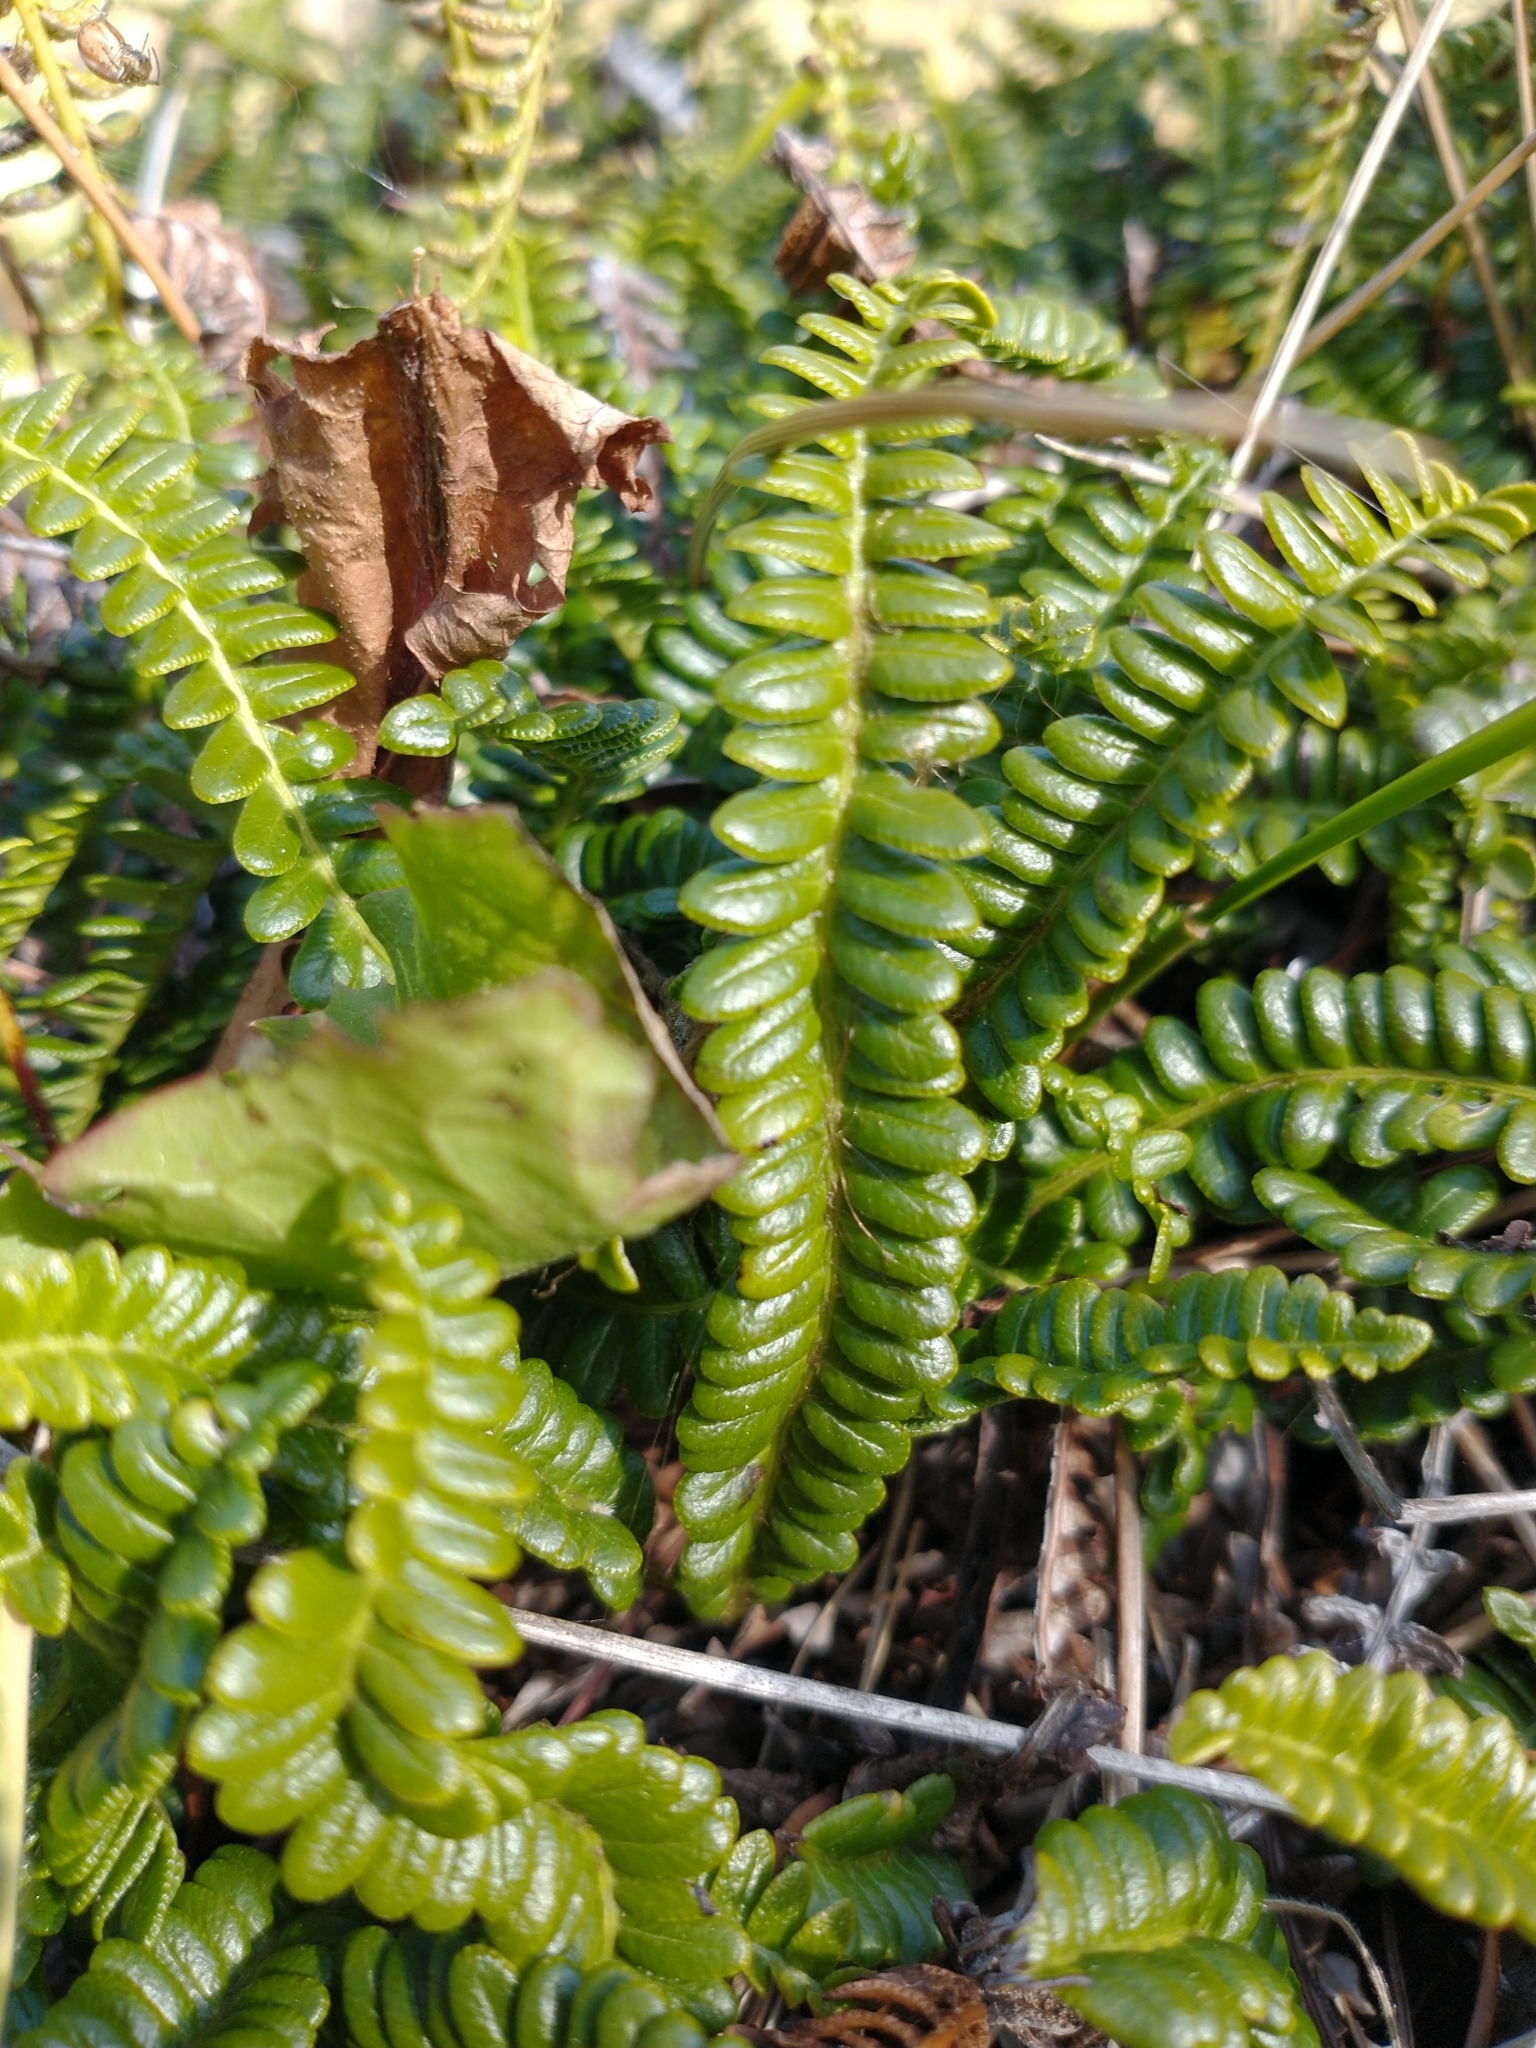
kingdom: Plantae
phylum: Tracheophyta
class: Polypodiopsida
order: Polypodiales
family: Blechnaceae
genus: Austroblechnum
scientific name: Austroblechnum penna-marina
